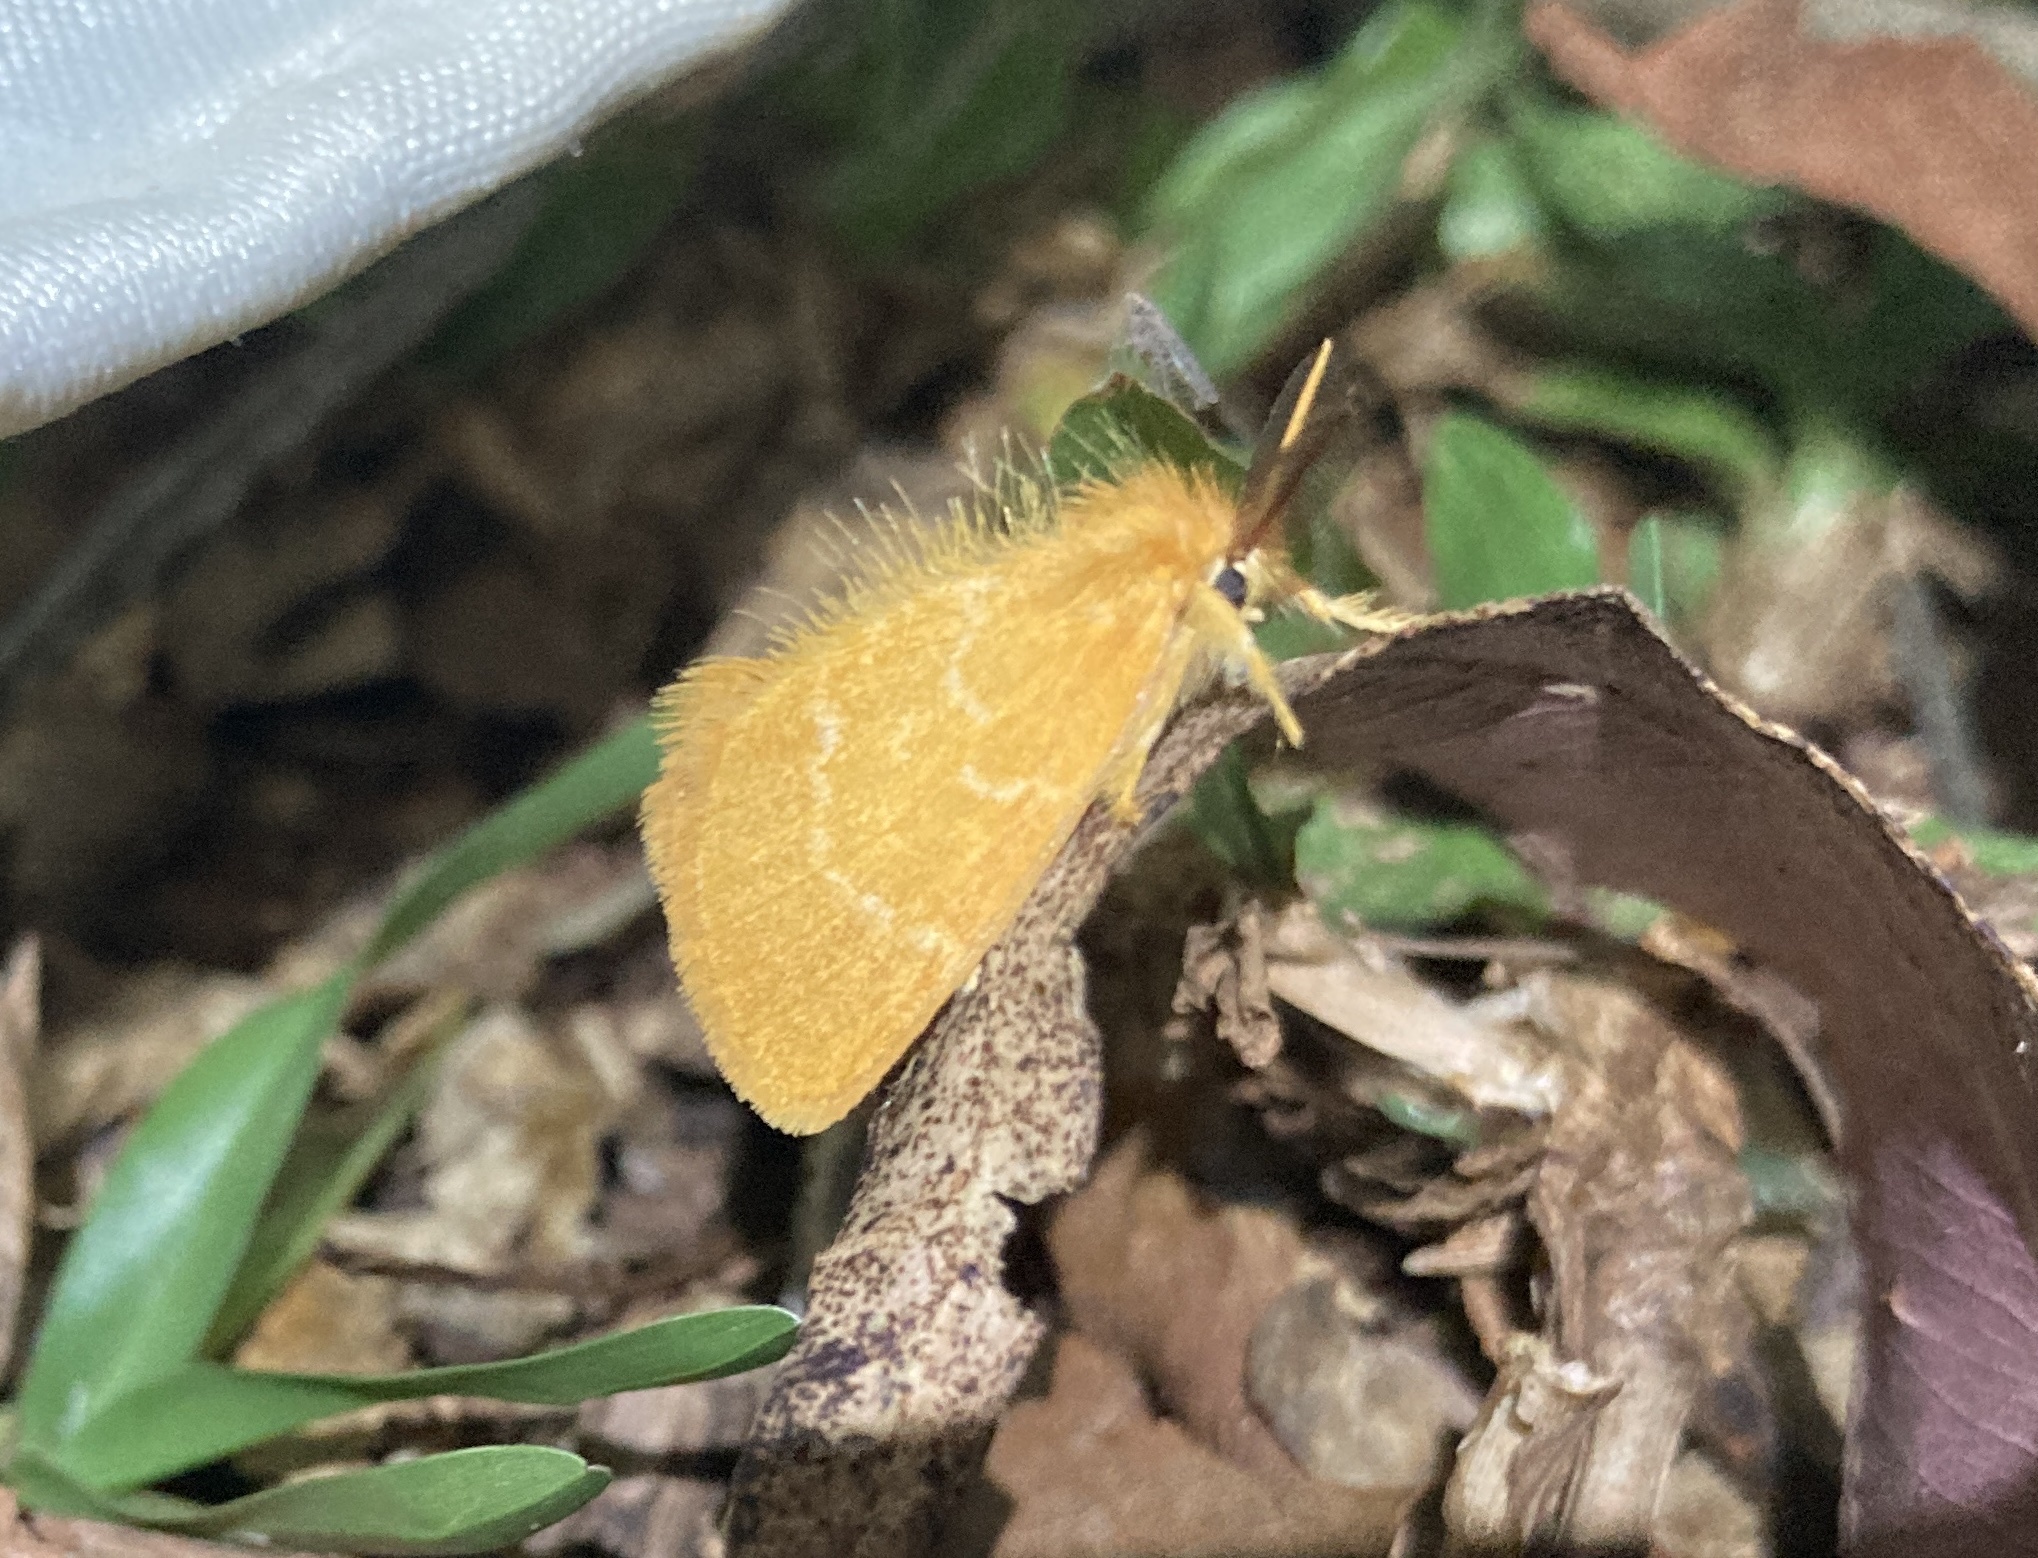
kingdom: Animalia
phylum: Arthropoda
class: Insecta
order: Lepidoptera
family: Erebidae
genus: Euproctis
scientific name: Euproctis lutea
